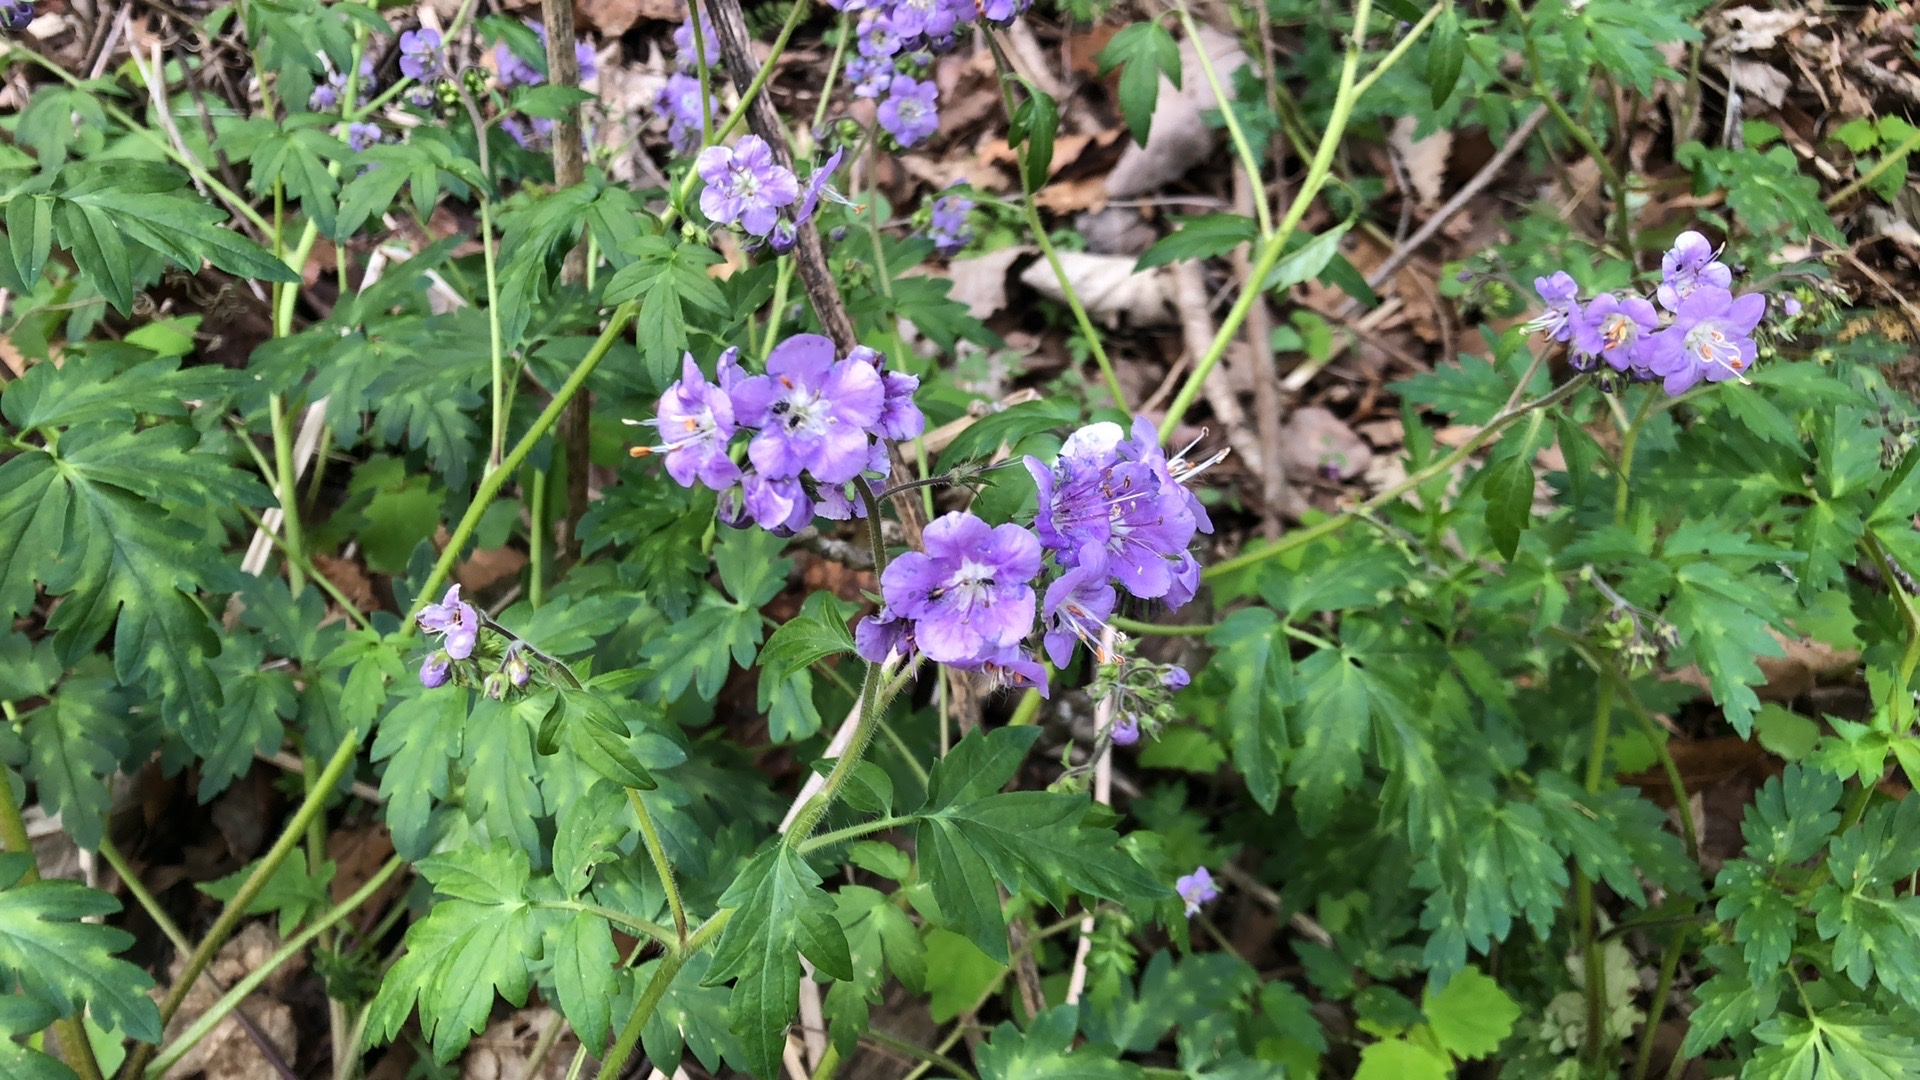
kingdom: Plantae
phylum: Tracheophyta
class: Magnoliopsida
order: Boraginales
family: Hydrophyllaceae
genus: Phacelia
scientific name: Phacelia bipinnatifida
